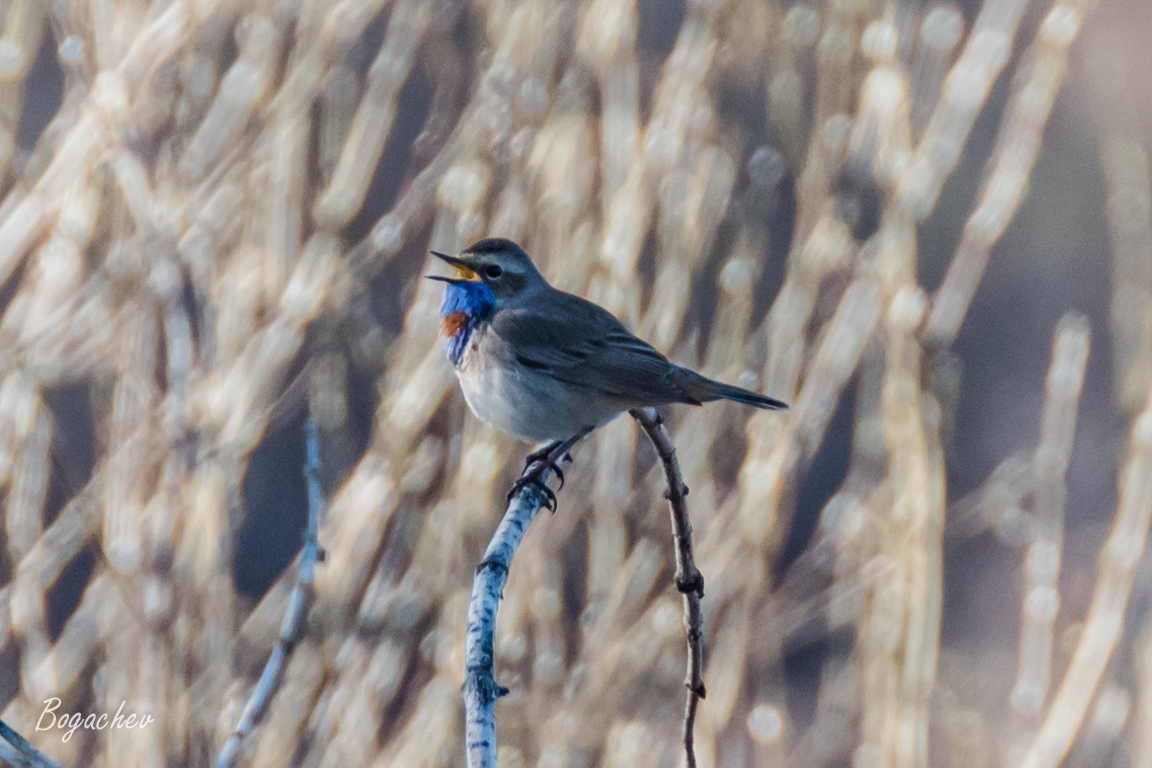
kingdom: Animalia
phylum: Chordata
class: Aves
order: Passeriformes
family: Muscicapidae
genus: Luscinia
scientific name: Luscinia svecica
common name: Bluethroat
